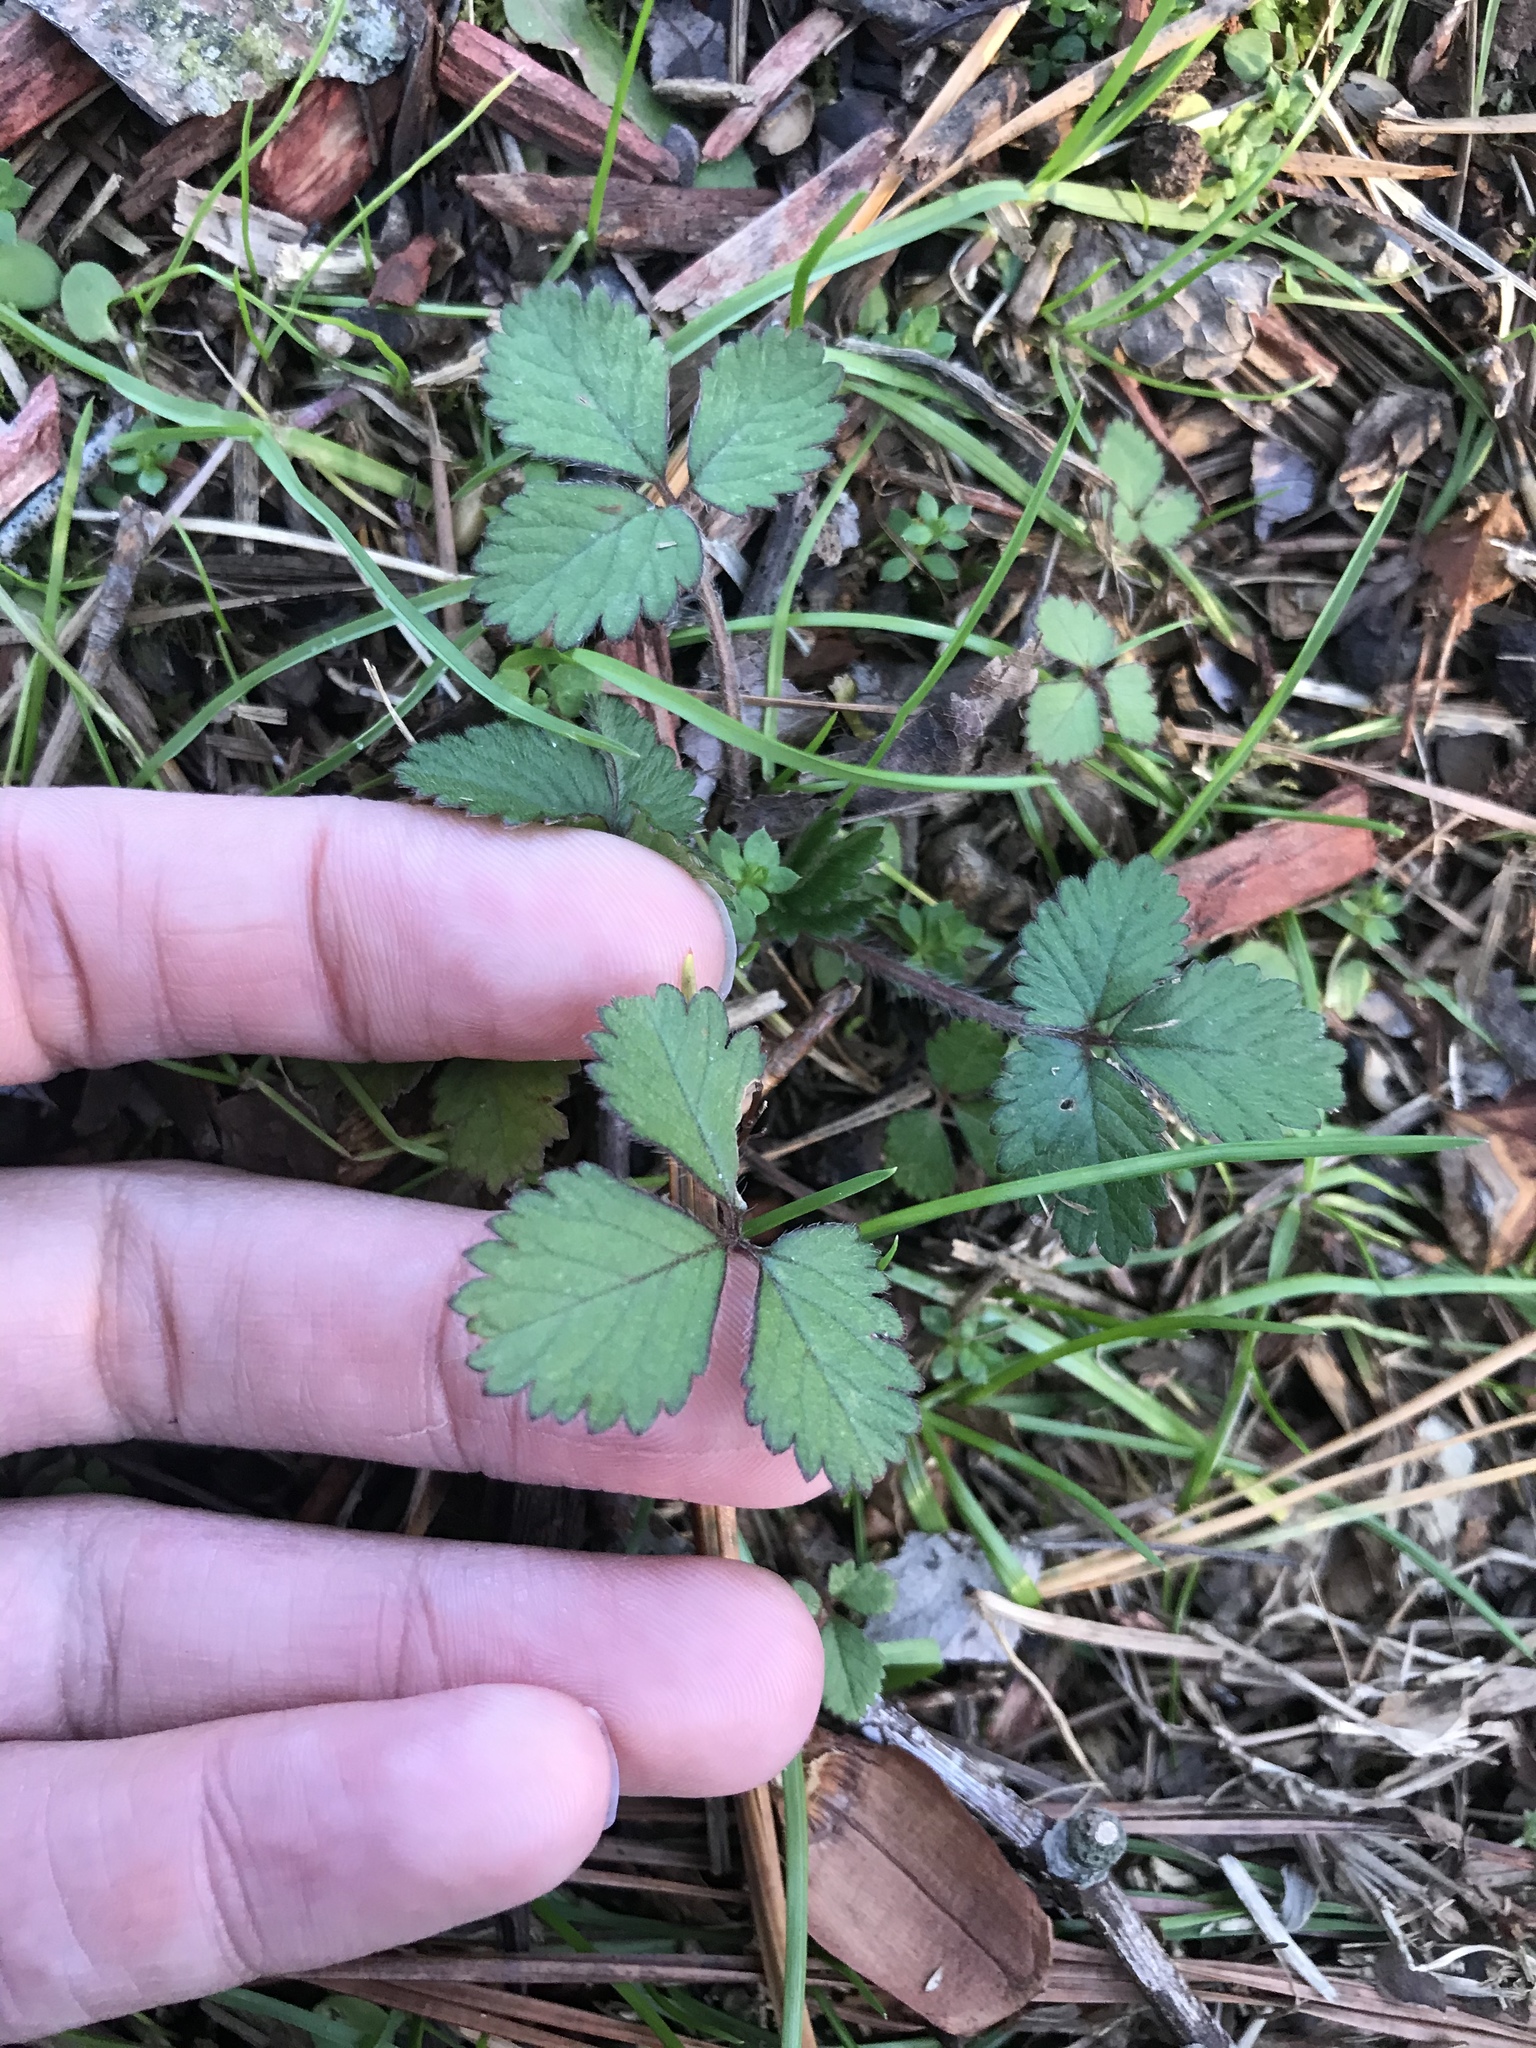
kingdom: Plantae
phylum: Tracheophyta
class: Magnoliopsida
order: Rosales
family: Rosaceae
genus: Potentilla
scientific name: Potentilla indica
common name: Yellow-flowered strawberry
